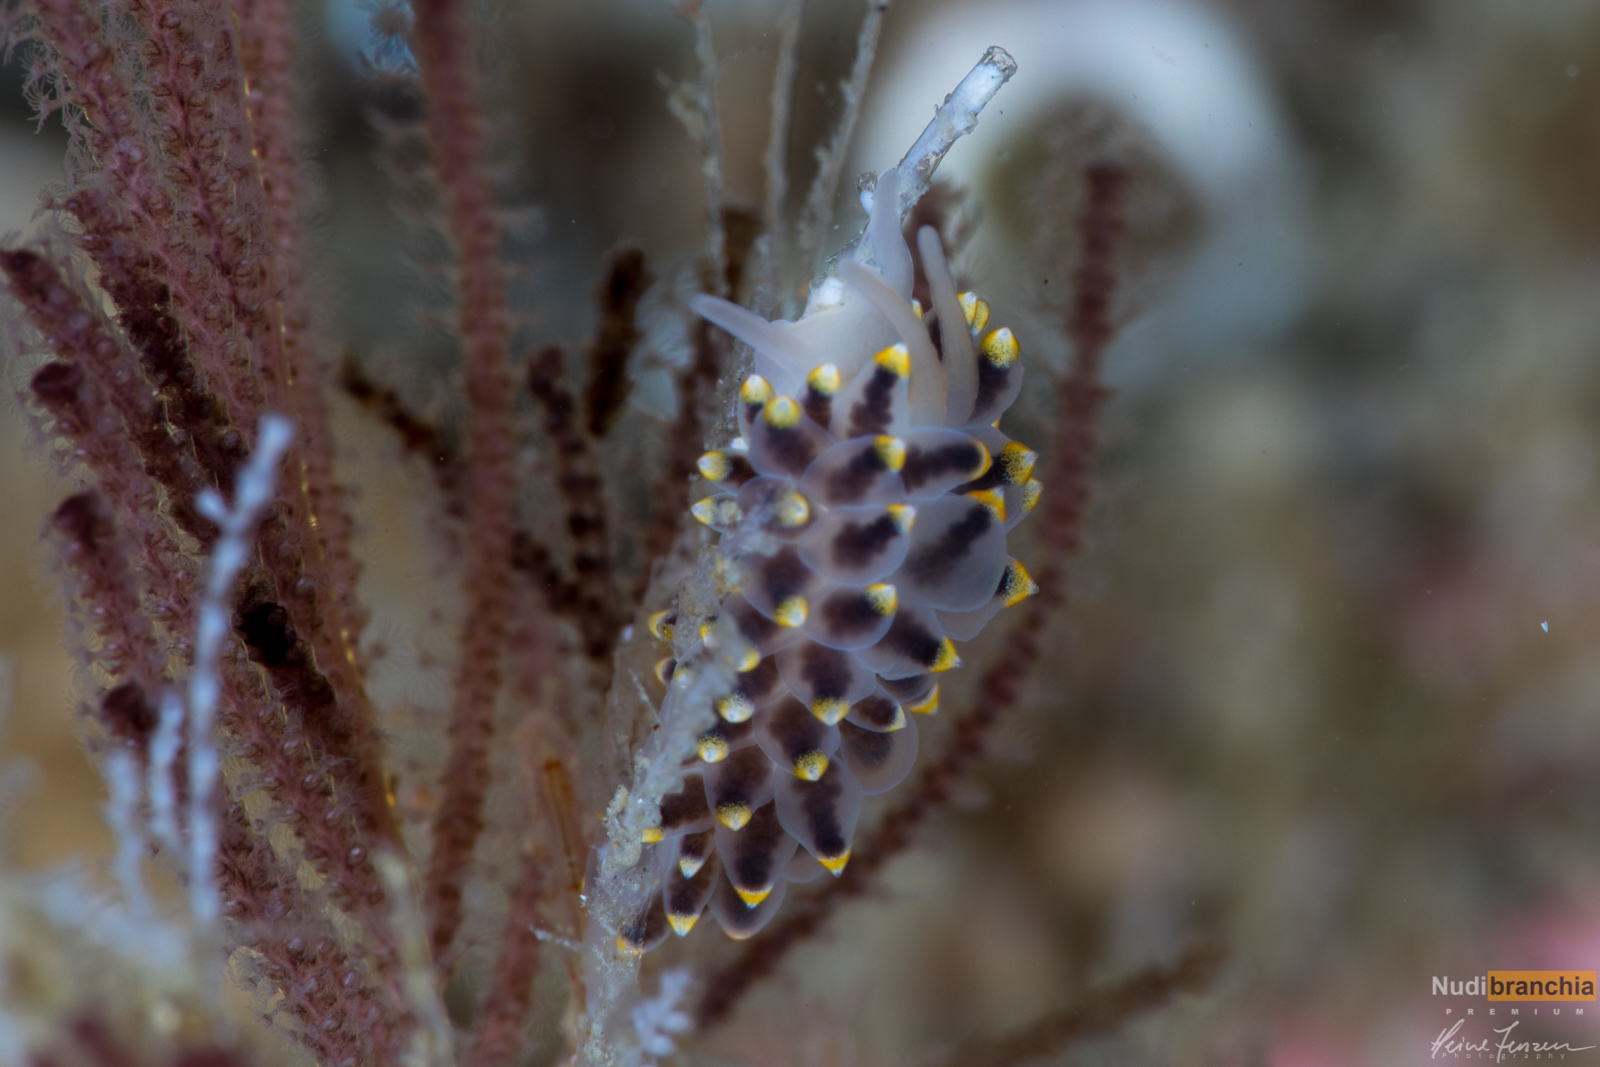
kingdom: Animalia
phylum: Mollusca
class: Gastropoda
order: Nudibranchia
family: Eubranchidae
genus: Eubranchus
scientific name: Eubranchus tricolor
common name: Painted balloon aeolis
